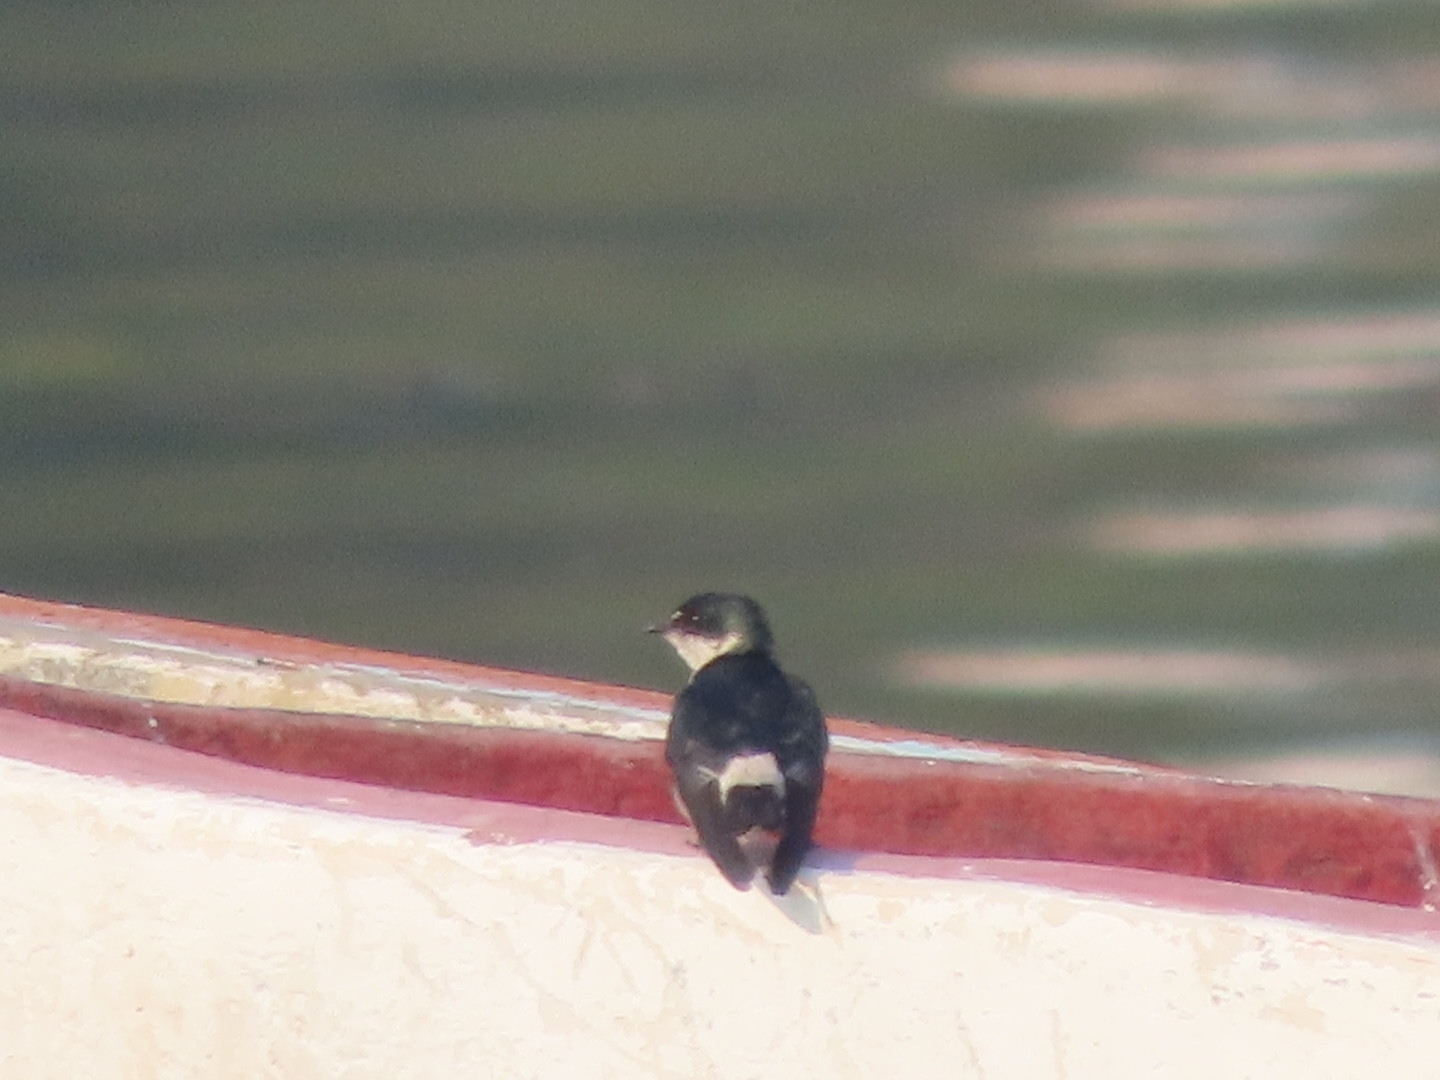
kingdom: Animalia
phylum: Chordata
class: Aves
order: Passeriformes
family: Hirundinidae
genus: Tachycineta
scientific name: Tachycineta albilinea
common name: Mangrove swallow
